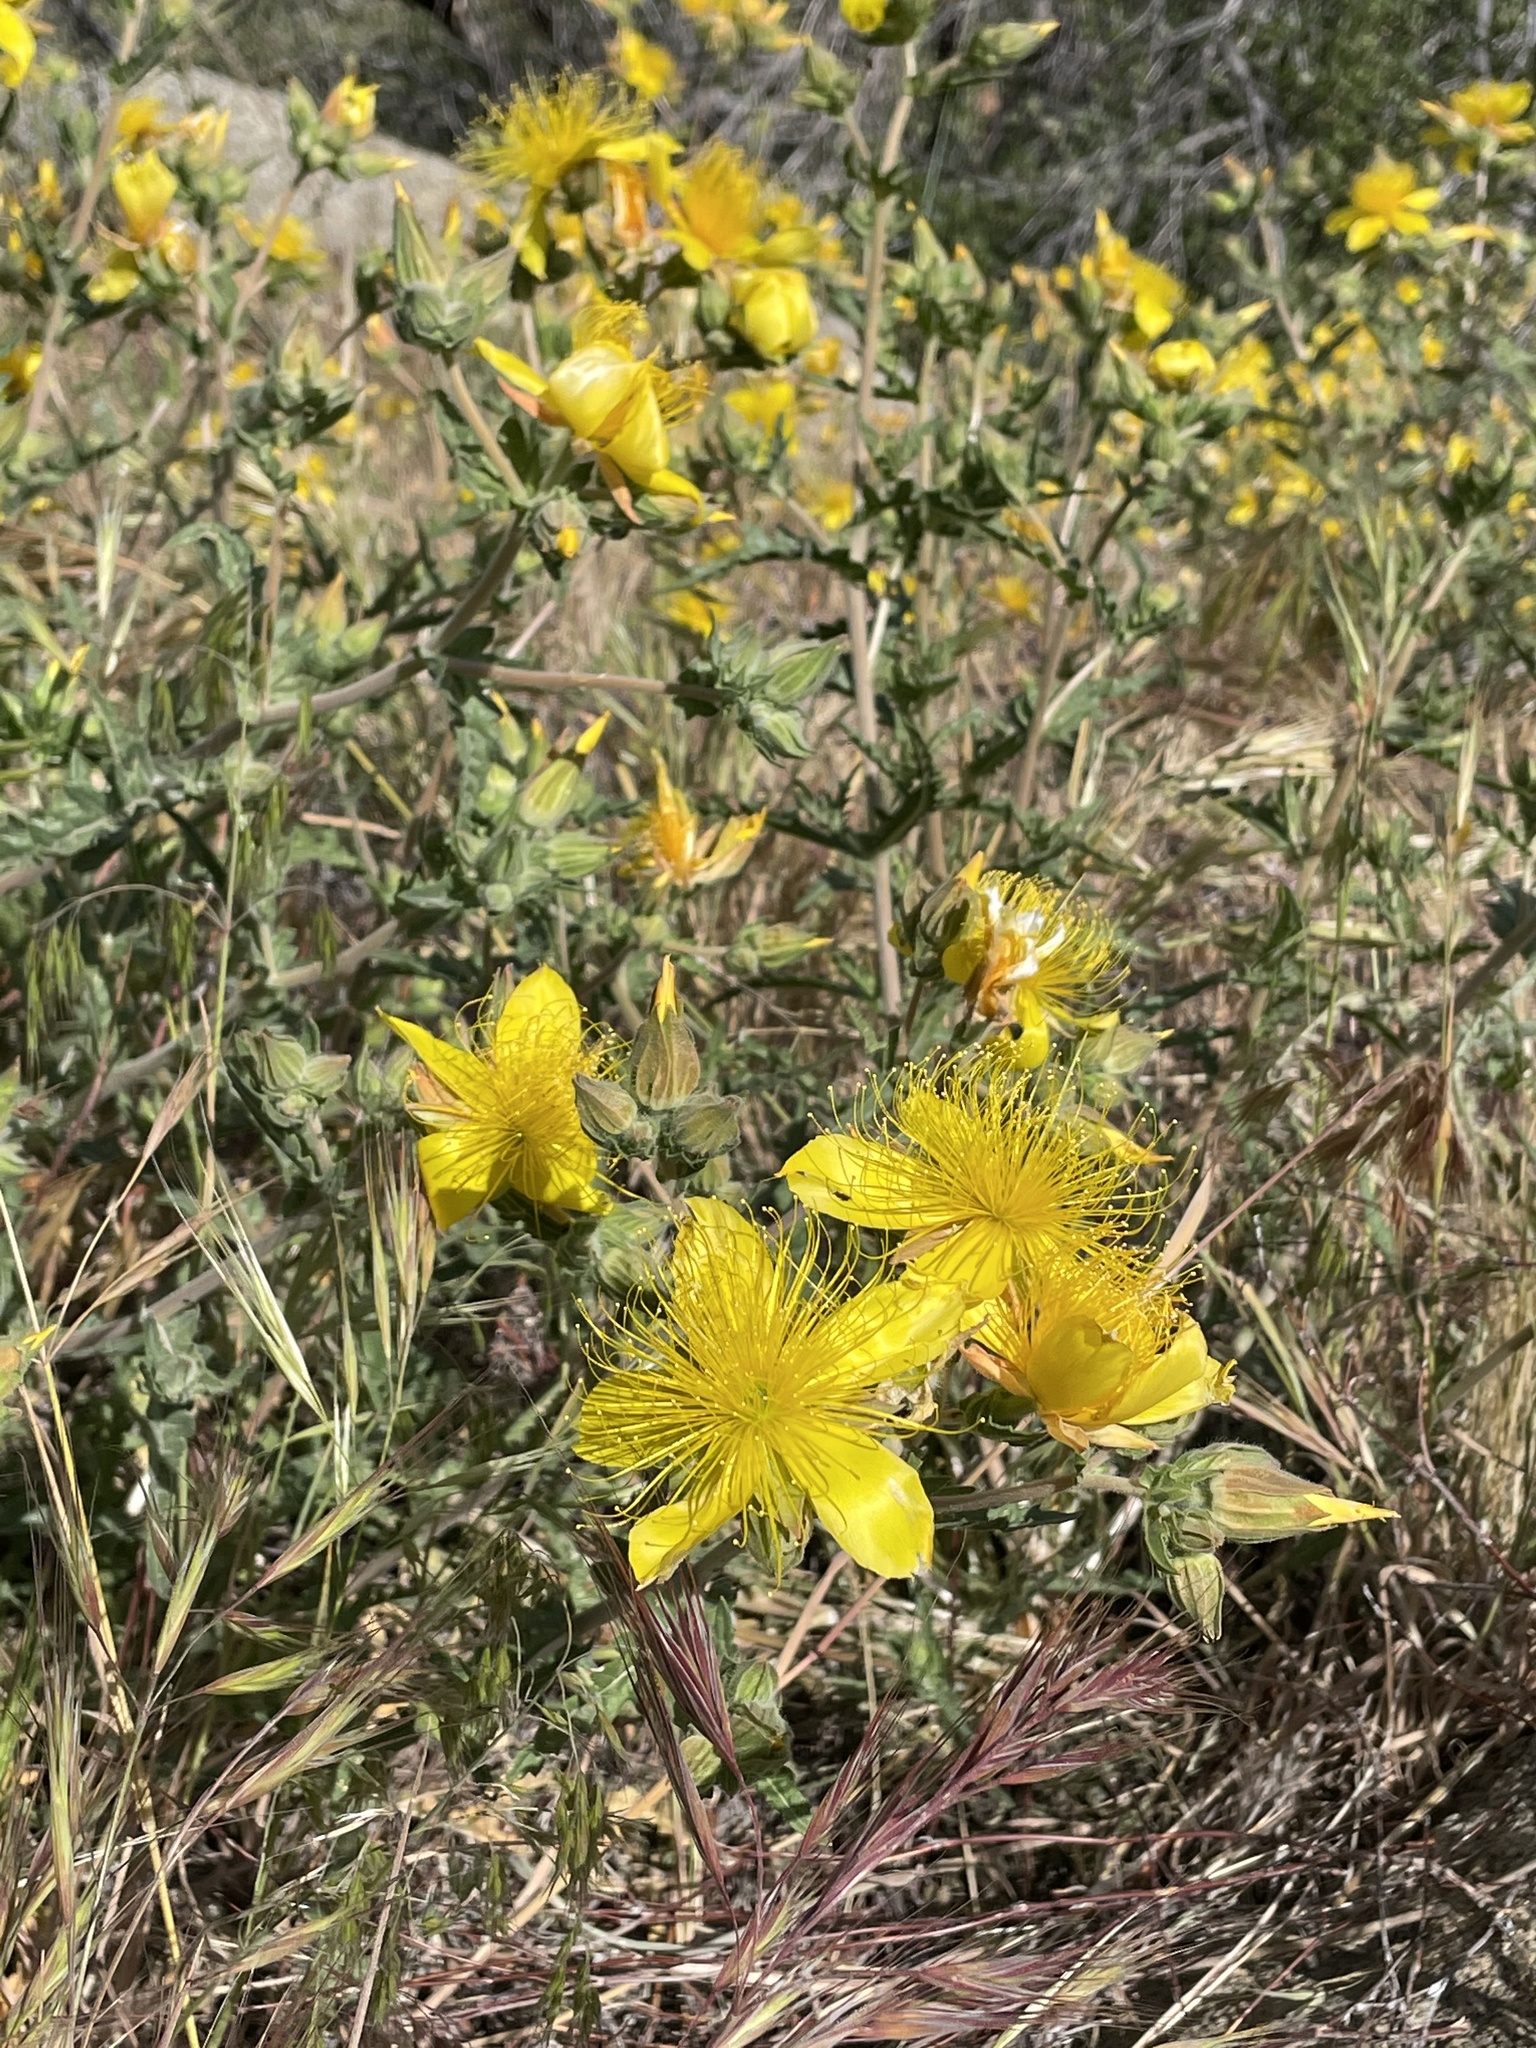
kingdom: Plantae
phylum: Tracheophyta
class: Magnoliopsida
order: Cornales
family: Loasaceae
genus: Mentzelia
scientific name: Mentzelia laevicaulis
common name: Smooth-stem blazingstar
